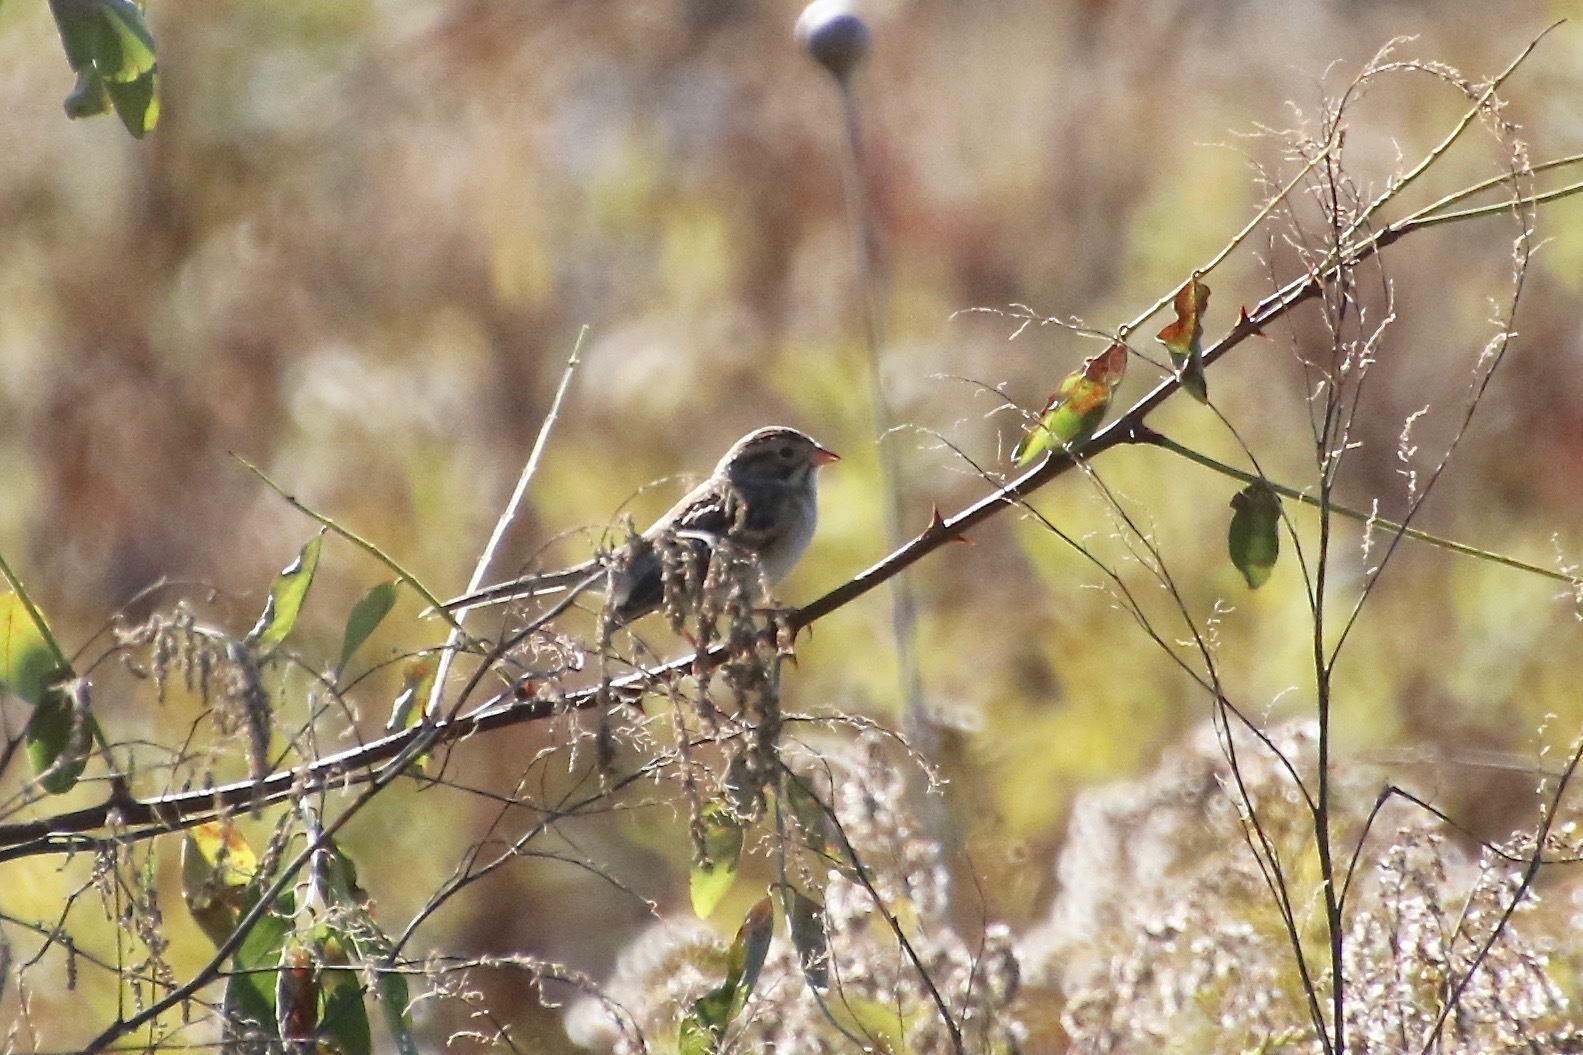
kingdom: Animalia
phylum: Chordata
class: Aves
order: Passeriformes
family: Passerellidae
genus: Spizella
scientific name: Spizella pallida
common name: Clay-colored sparrow
